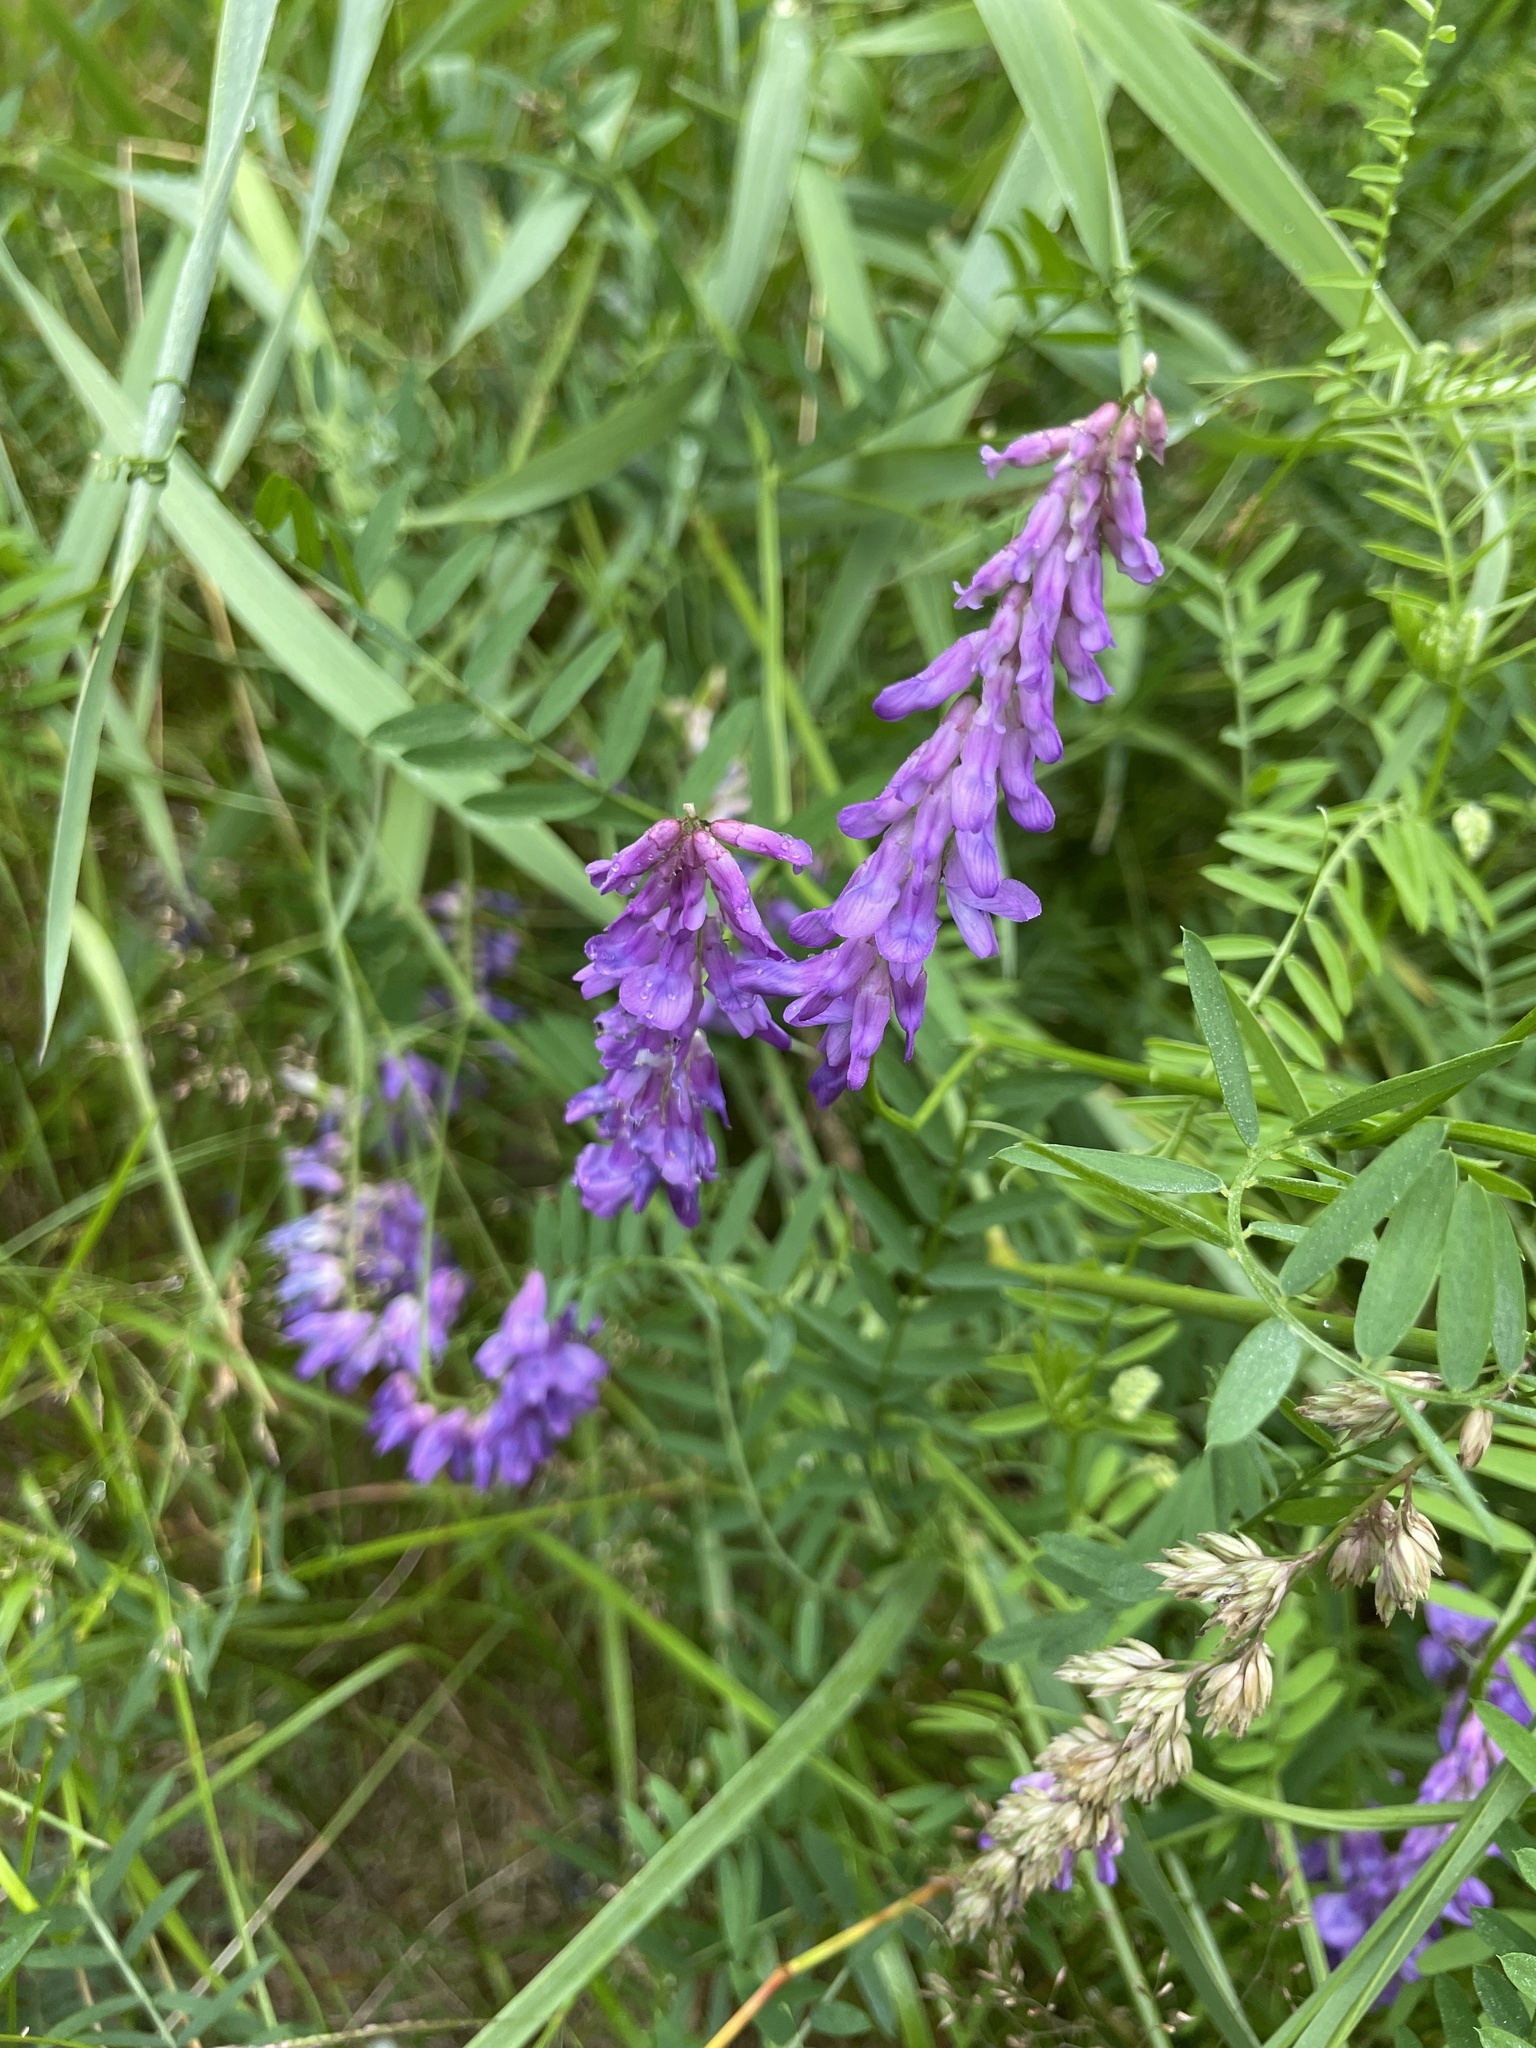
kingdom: Plantae
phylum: Tracheophyta
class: Magnoliopsida
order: Fabales
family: Fabaceae
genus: Vicia
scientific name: Vicia cracca
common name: Bird vetch
